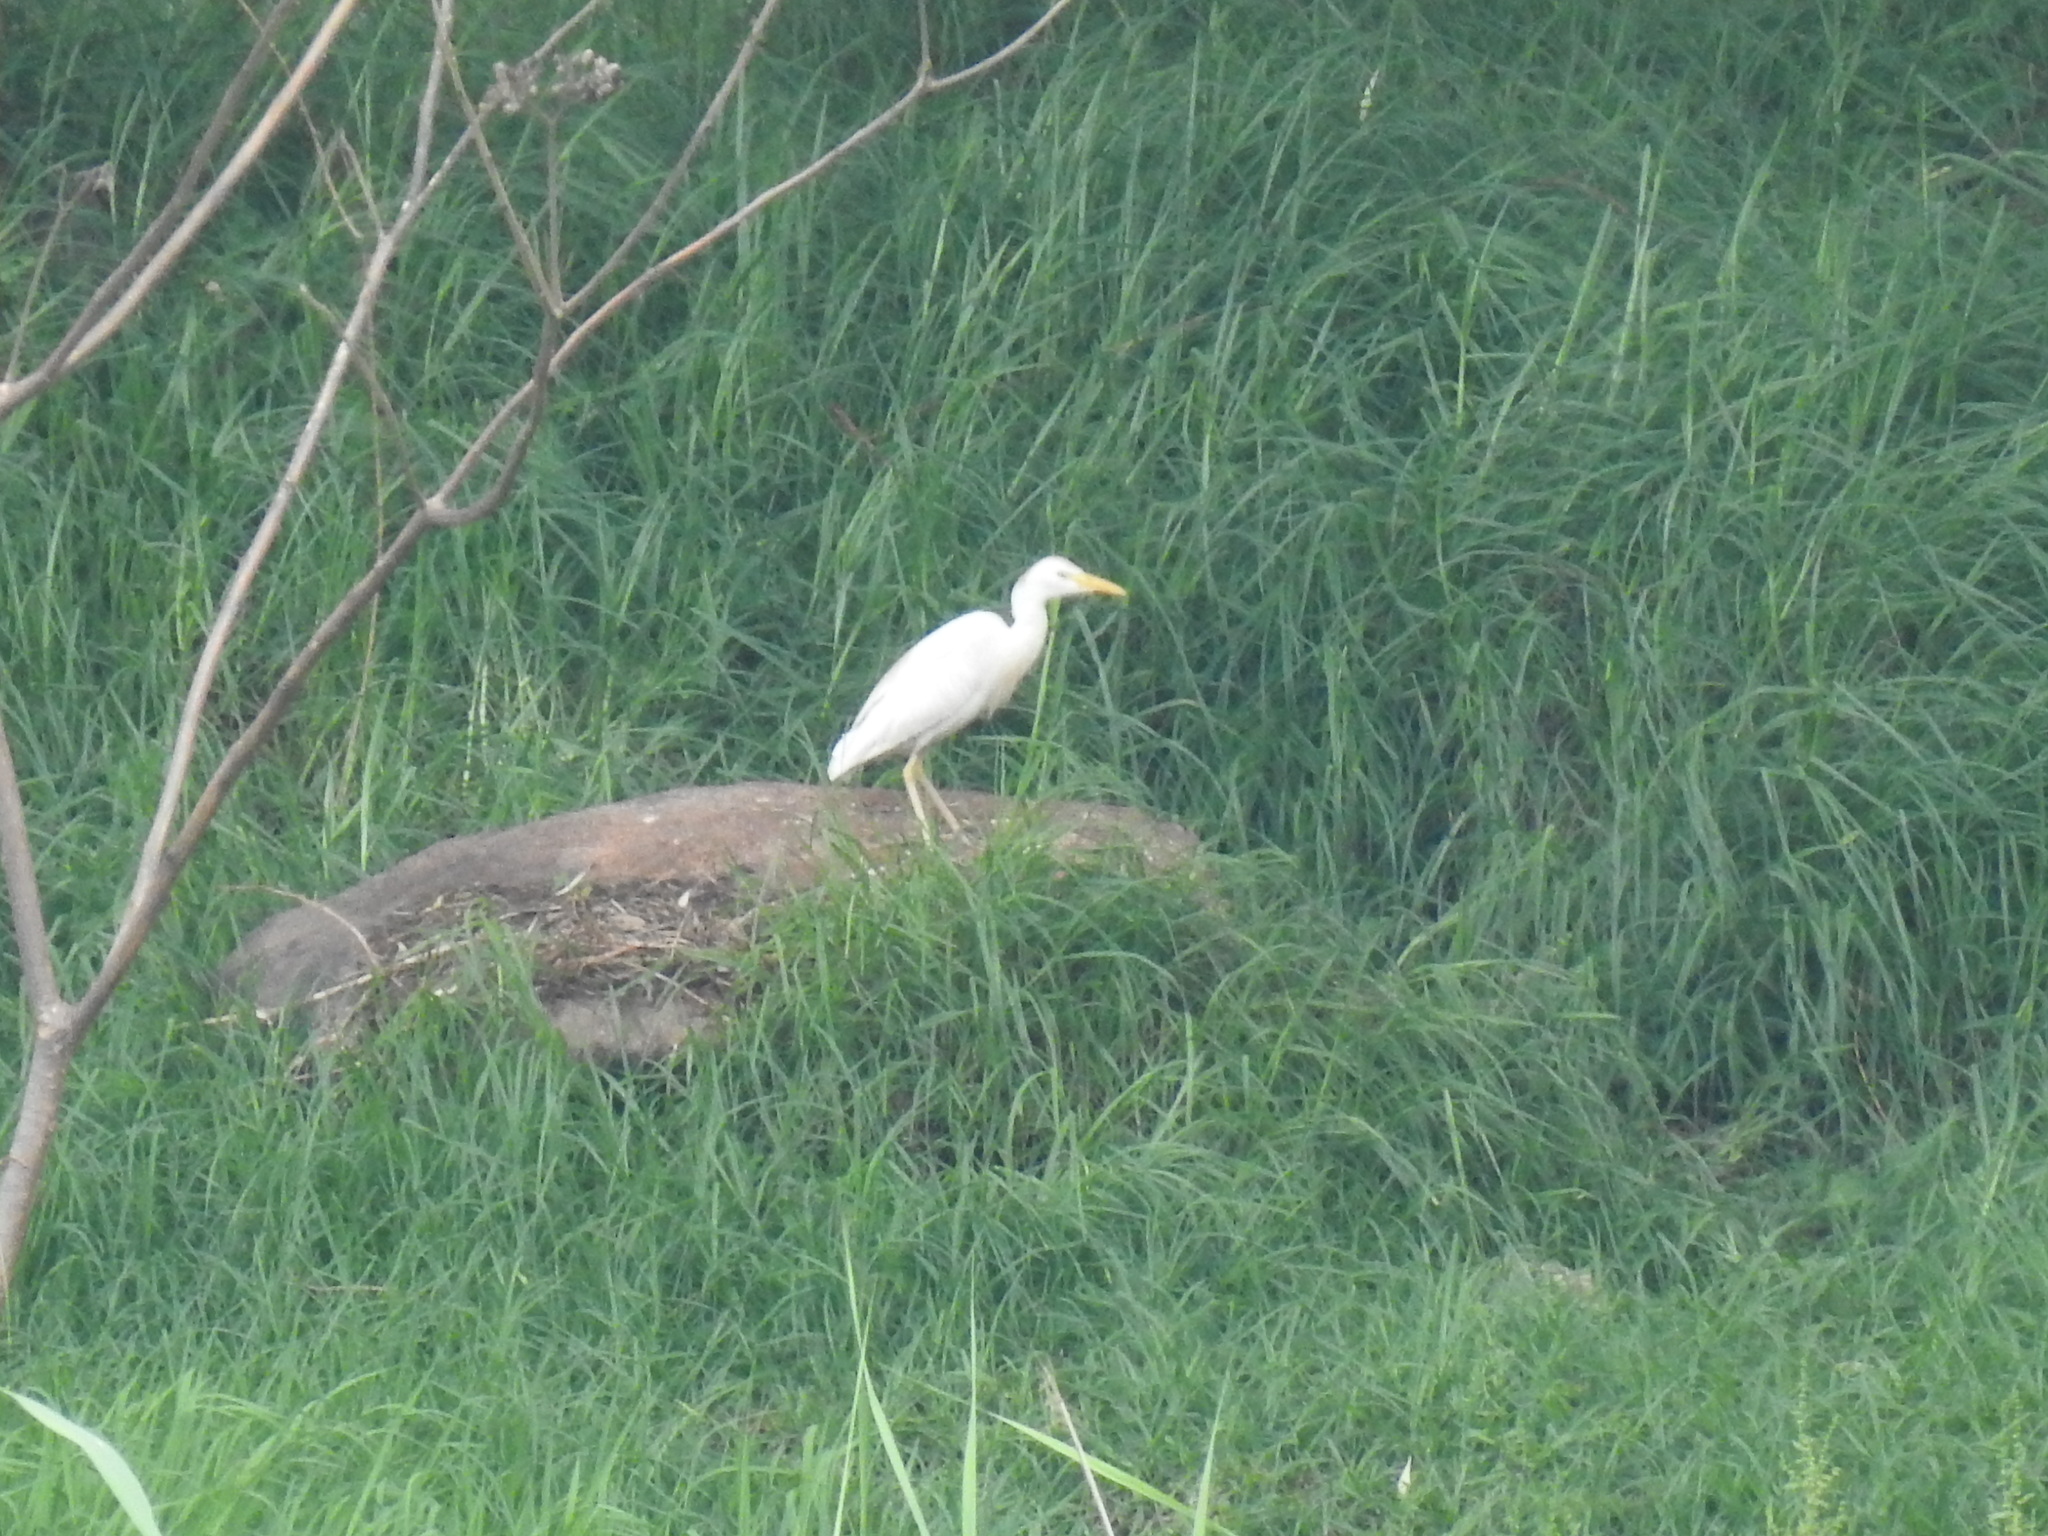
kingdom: Animalia
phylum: Chordata
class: Aves
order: Pelecaniformes
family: Ardeidae
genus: Bubulcus
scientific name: Bubulcus ibis
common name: Cattle egret
